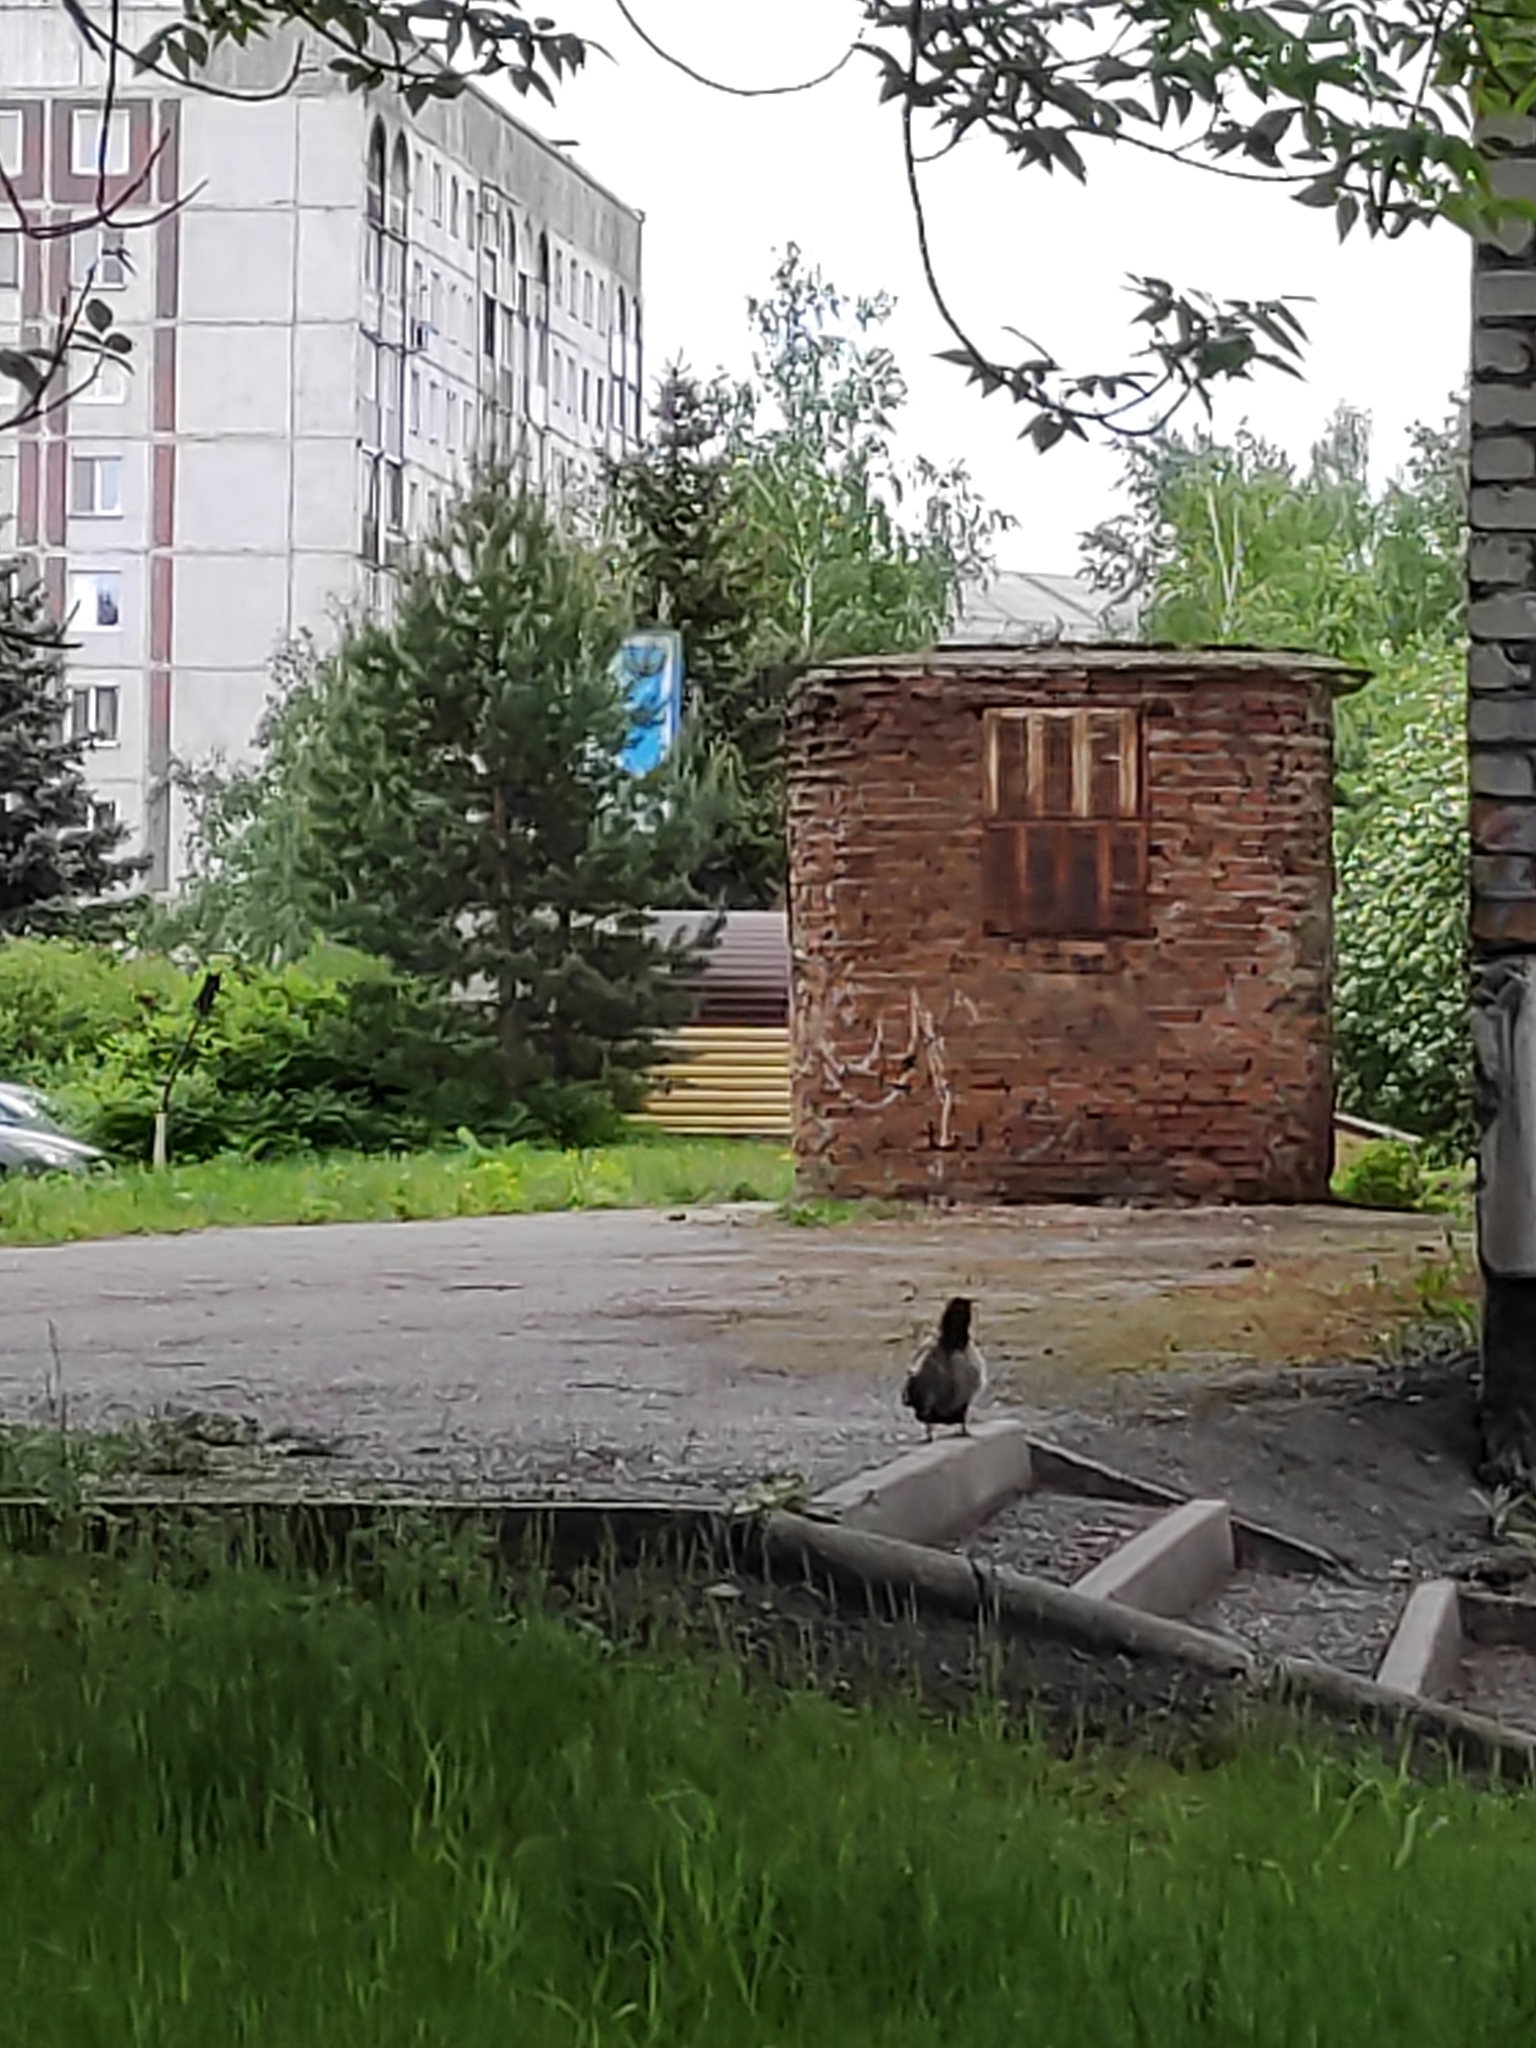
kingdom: Animalia
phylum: Chordata
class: Aves
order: Passeriformes
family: Corvidae
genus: Corvus
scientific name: Corvus cornix
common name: Hooded crow
